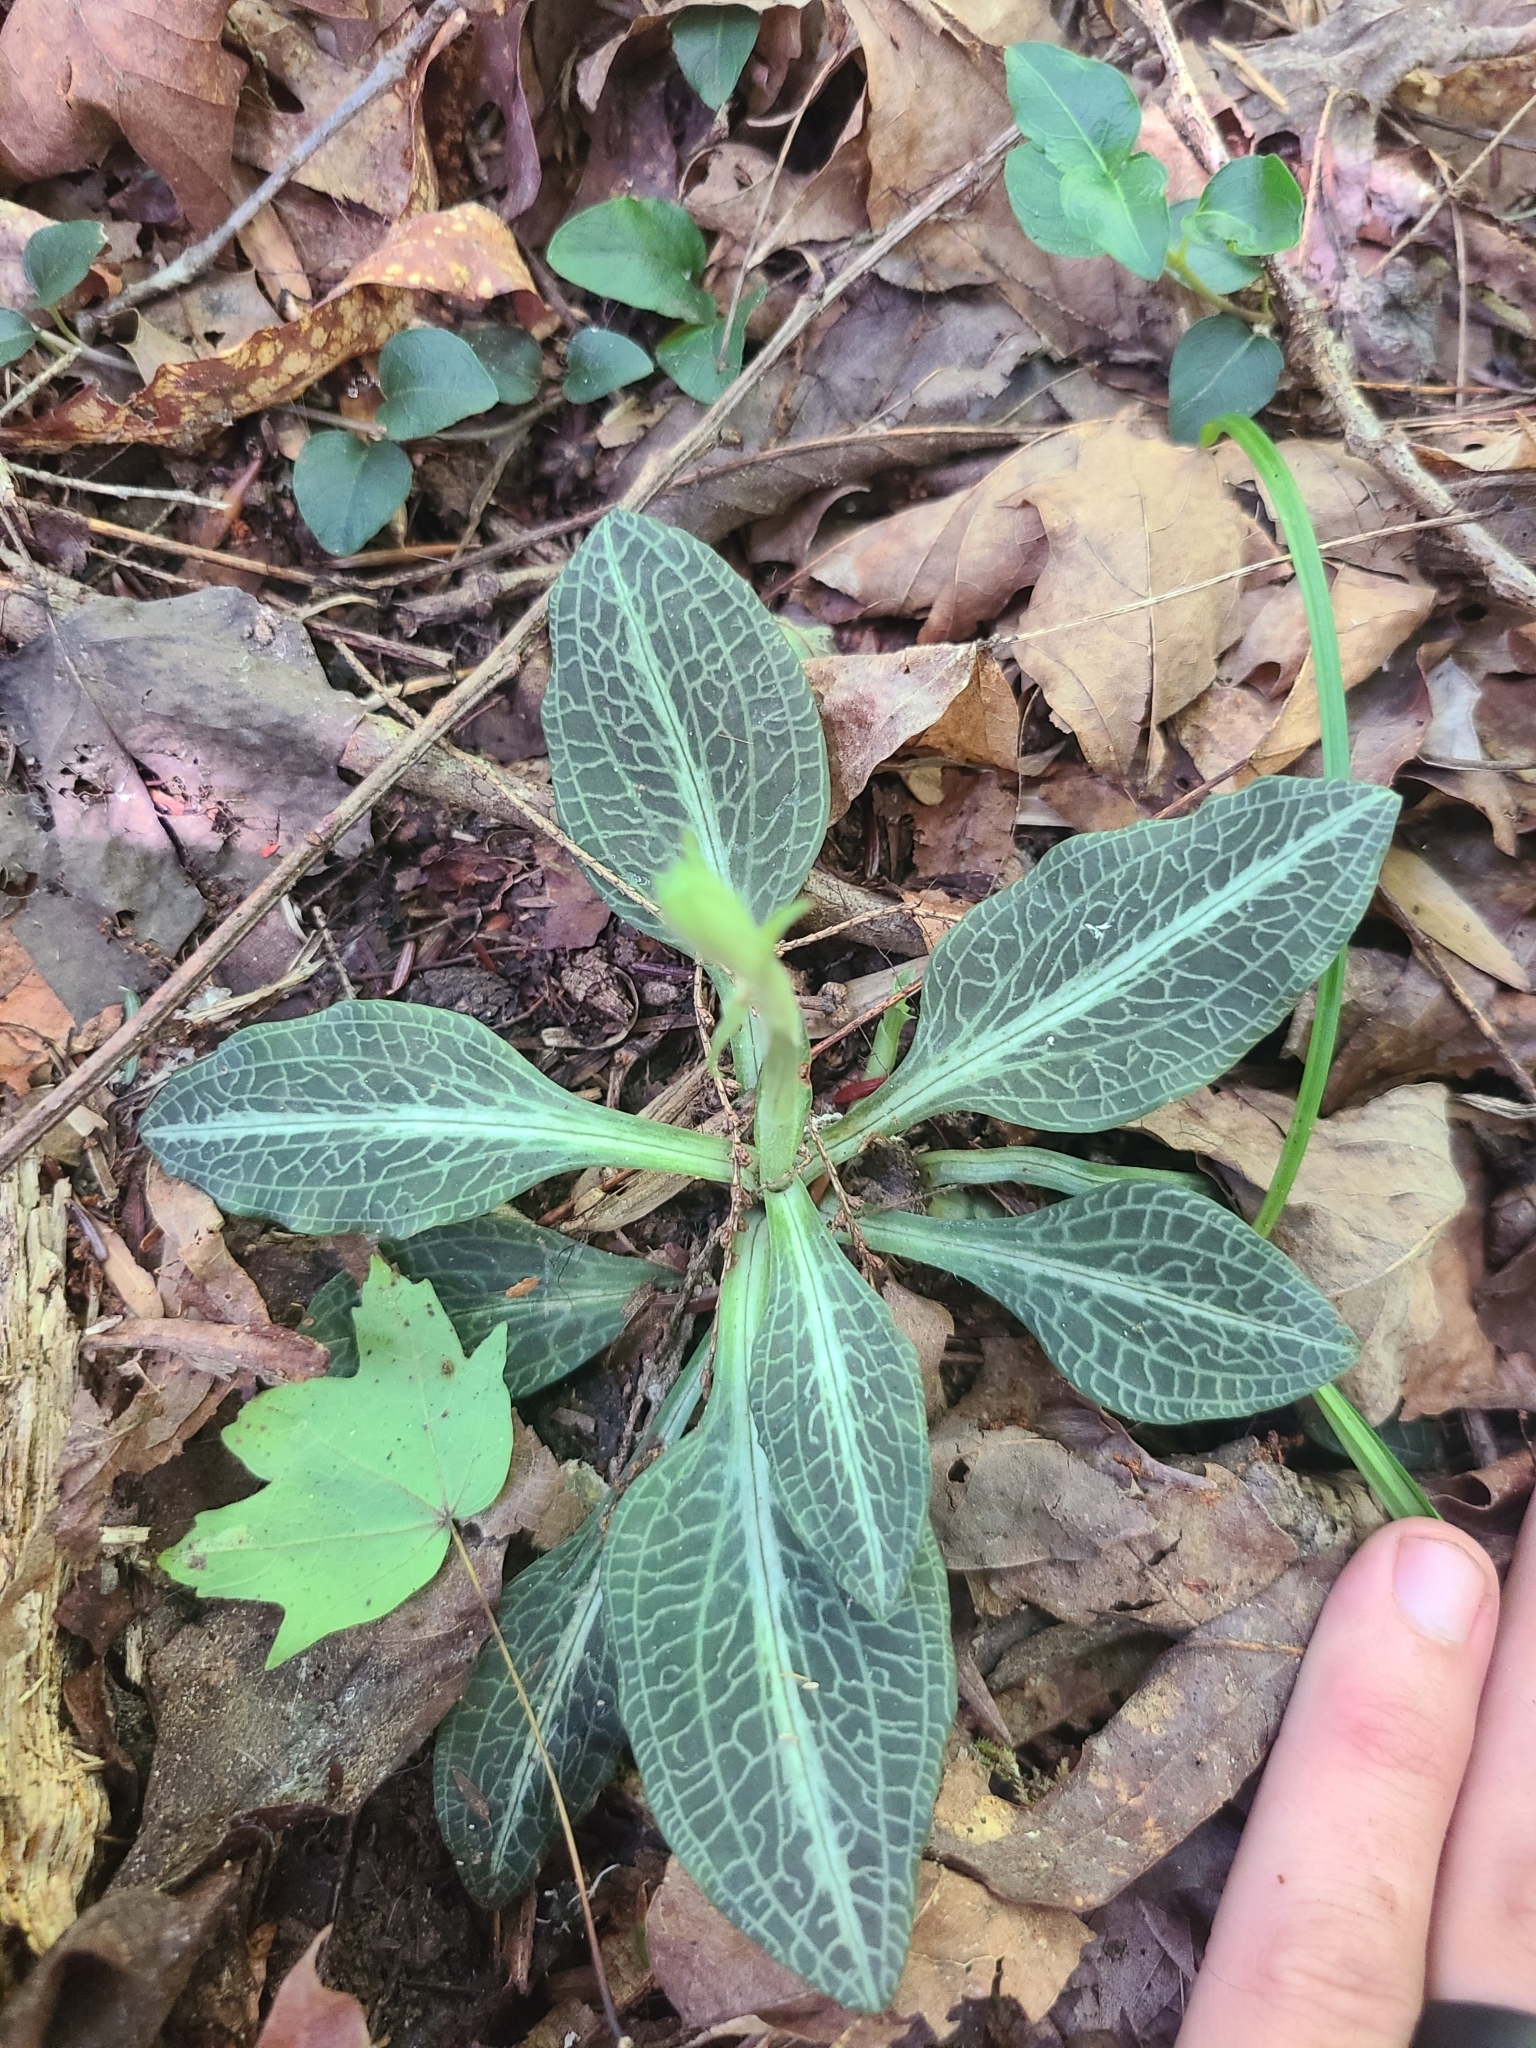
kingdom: Plantae
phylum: Tracheophyta
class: Liliopsida
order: Asparagales
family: Orchidaceae
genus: Goodyera
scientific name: Goodyera pubescens
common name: Downy rattlesnake-plantain
